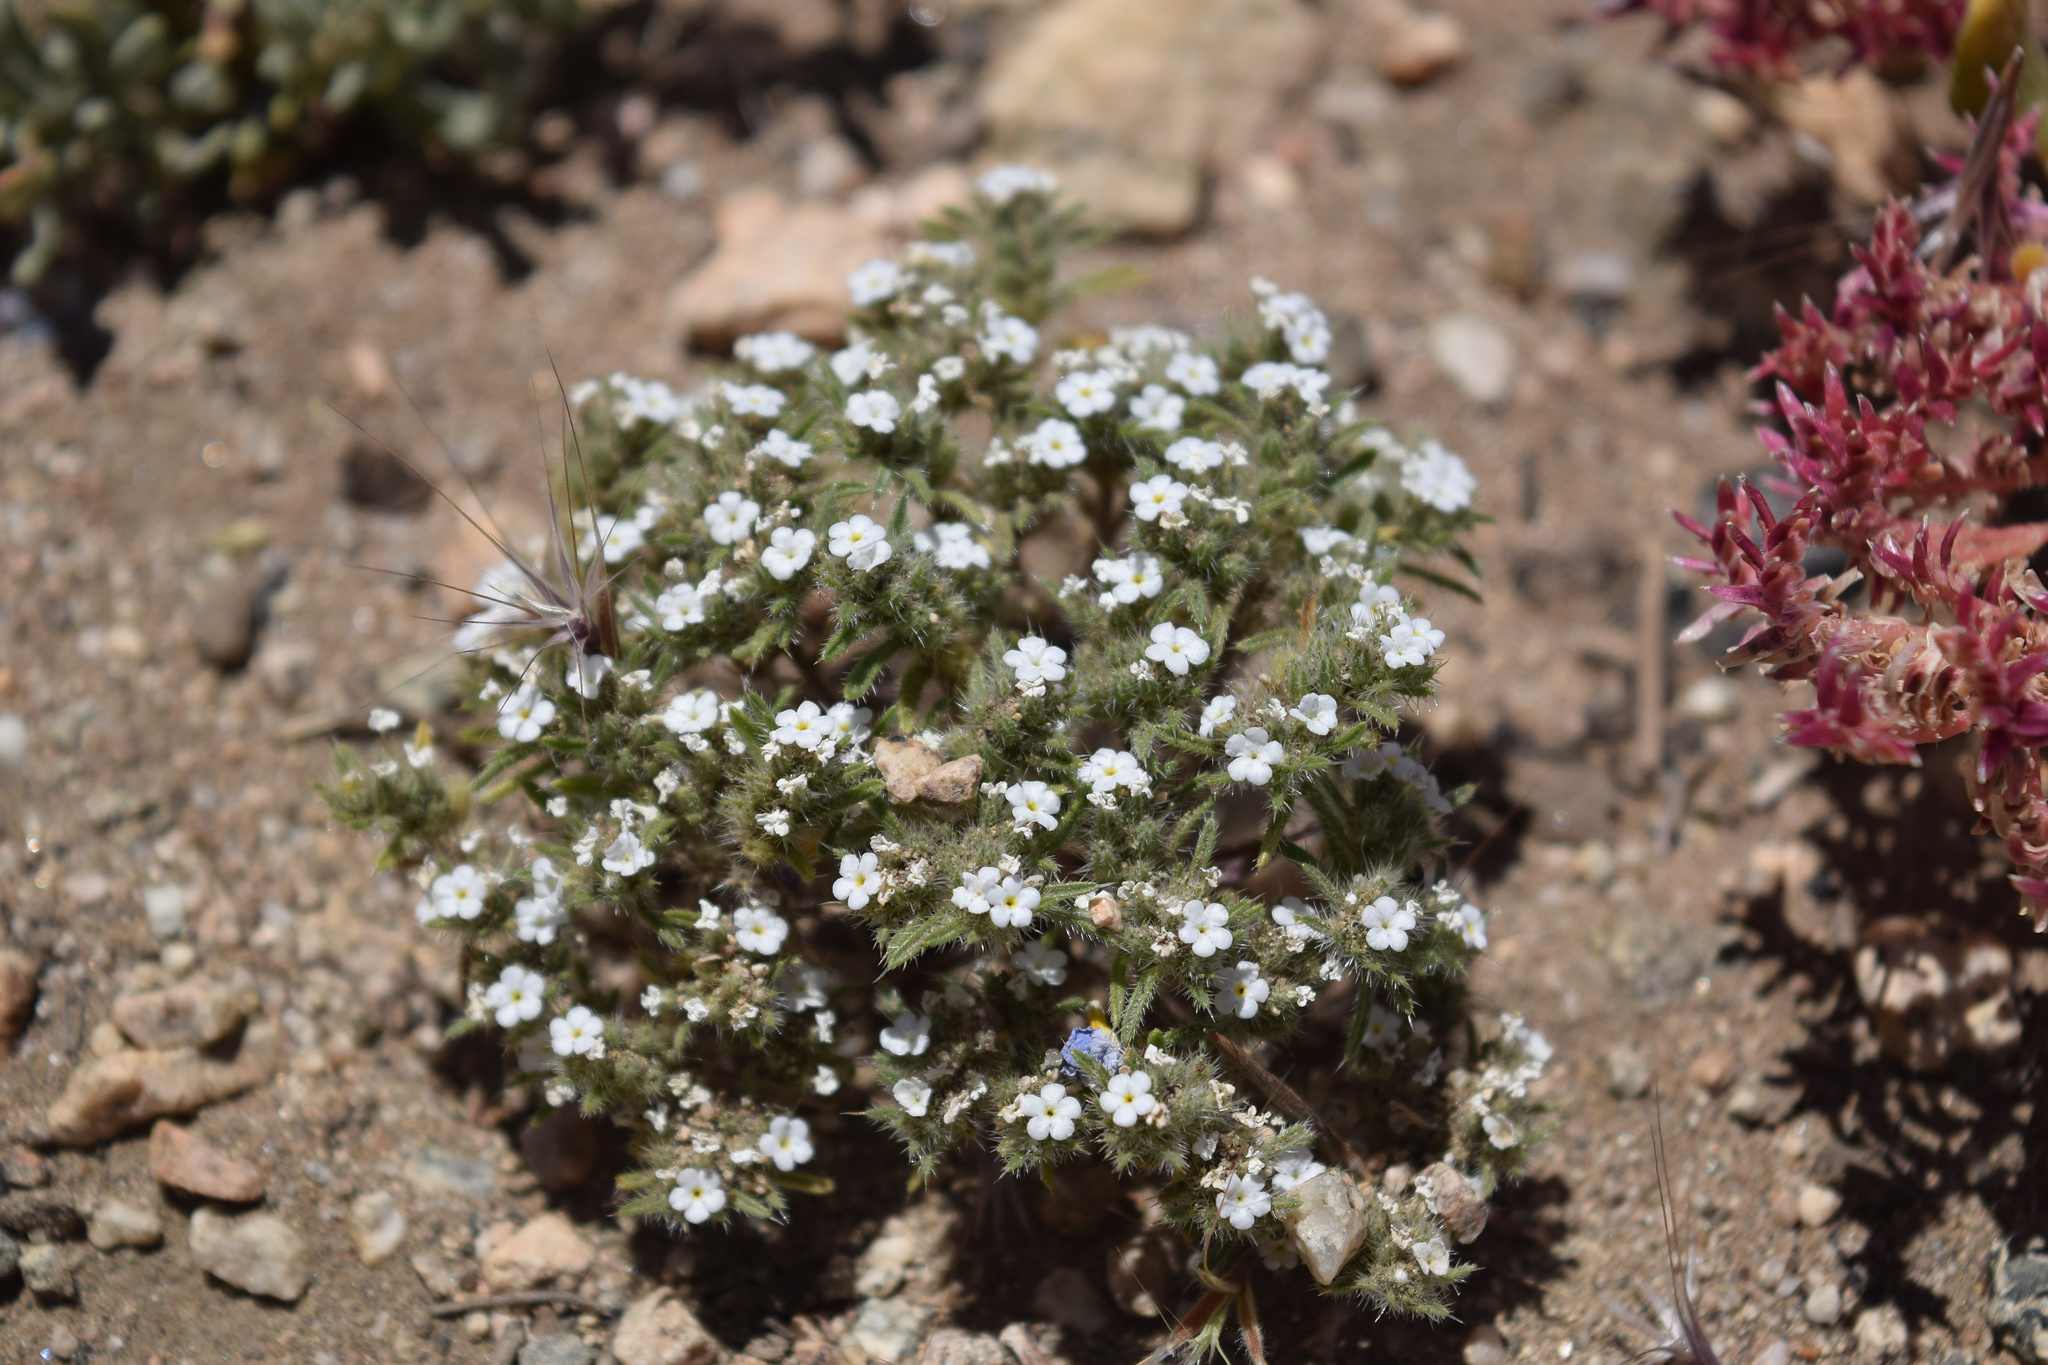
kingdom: Plantae
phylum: Tracheophyta
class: Magnoliopsida
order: Boraginales
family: Boraginaceae
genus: Greeneocharis
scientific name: Greeneocharis circumscissa
